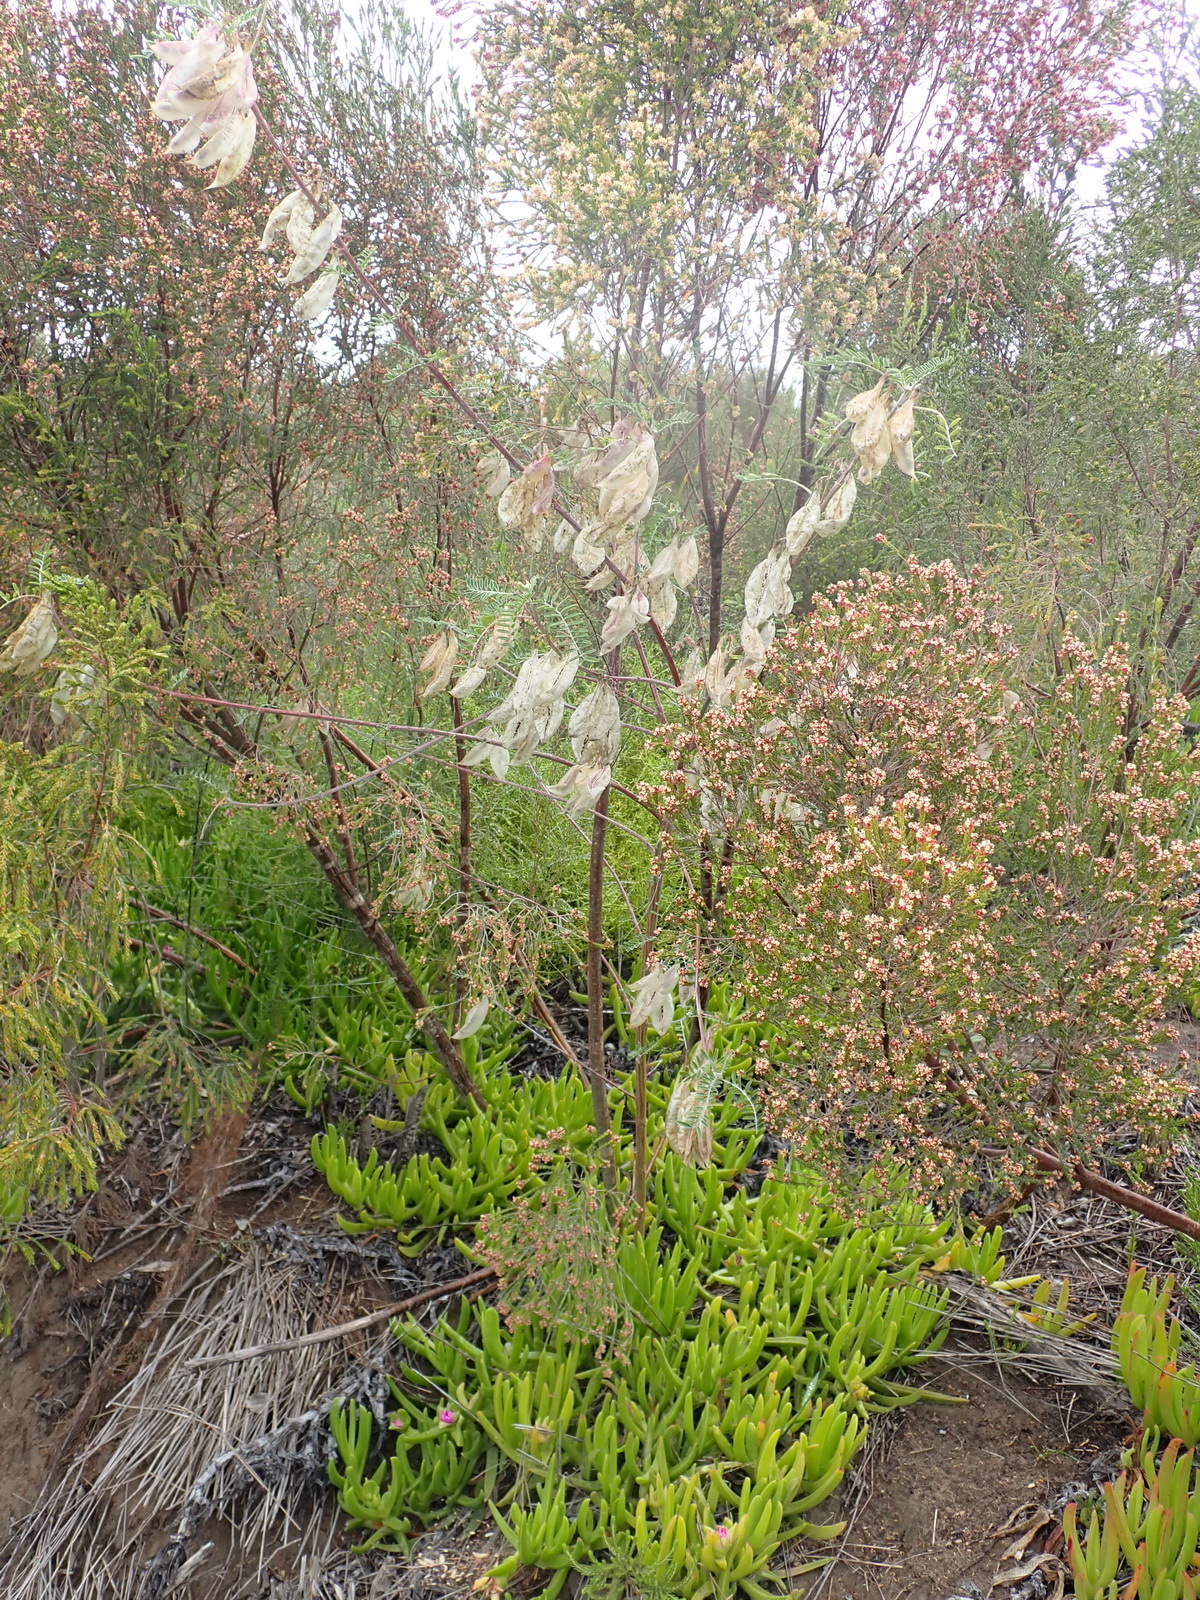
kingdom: Plantae
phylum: Tracheophyta
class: Magnoliopsida
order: Fabales
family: Fabaceae
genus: Lessertia
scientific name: Lessertia frutescens
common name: Balloon-pea
